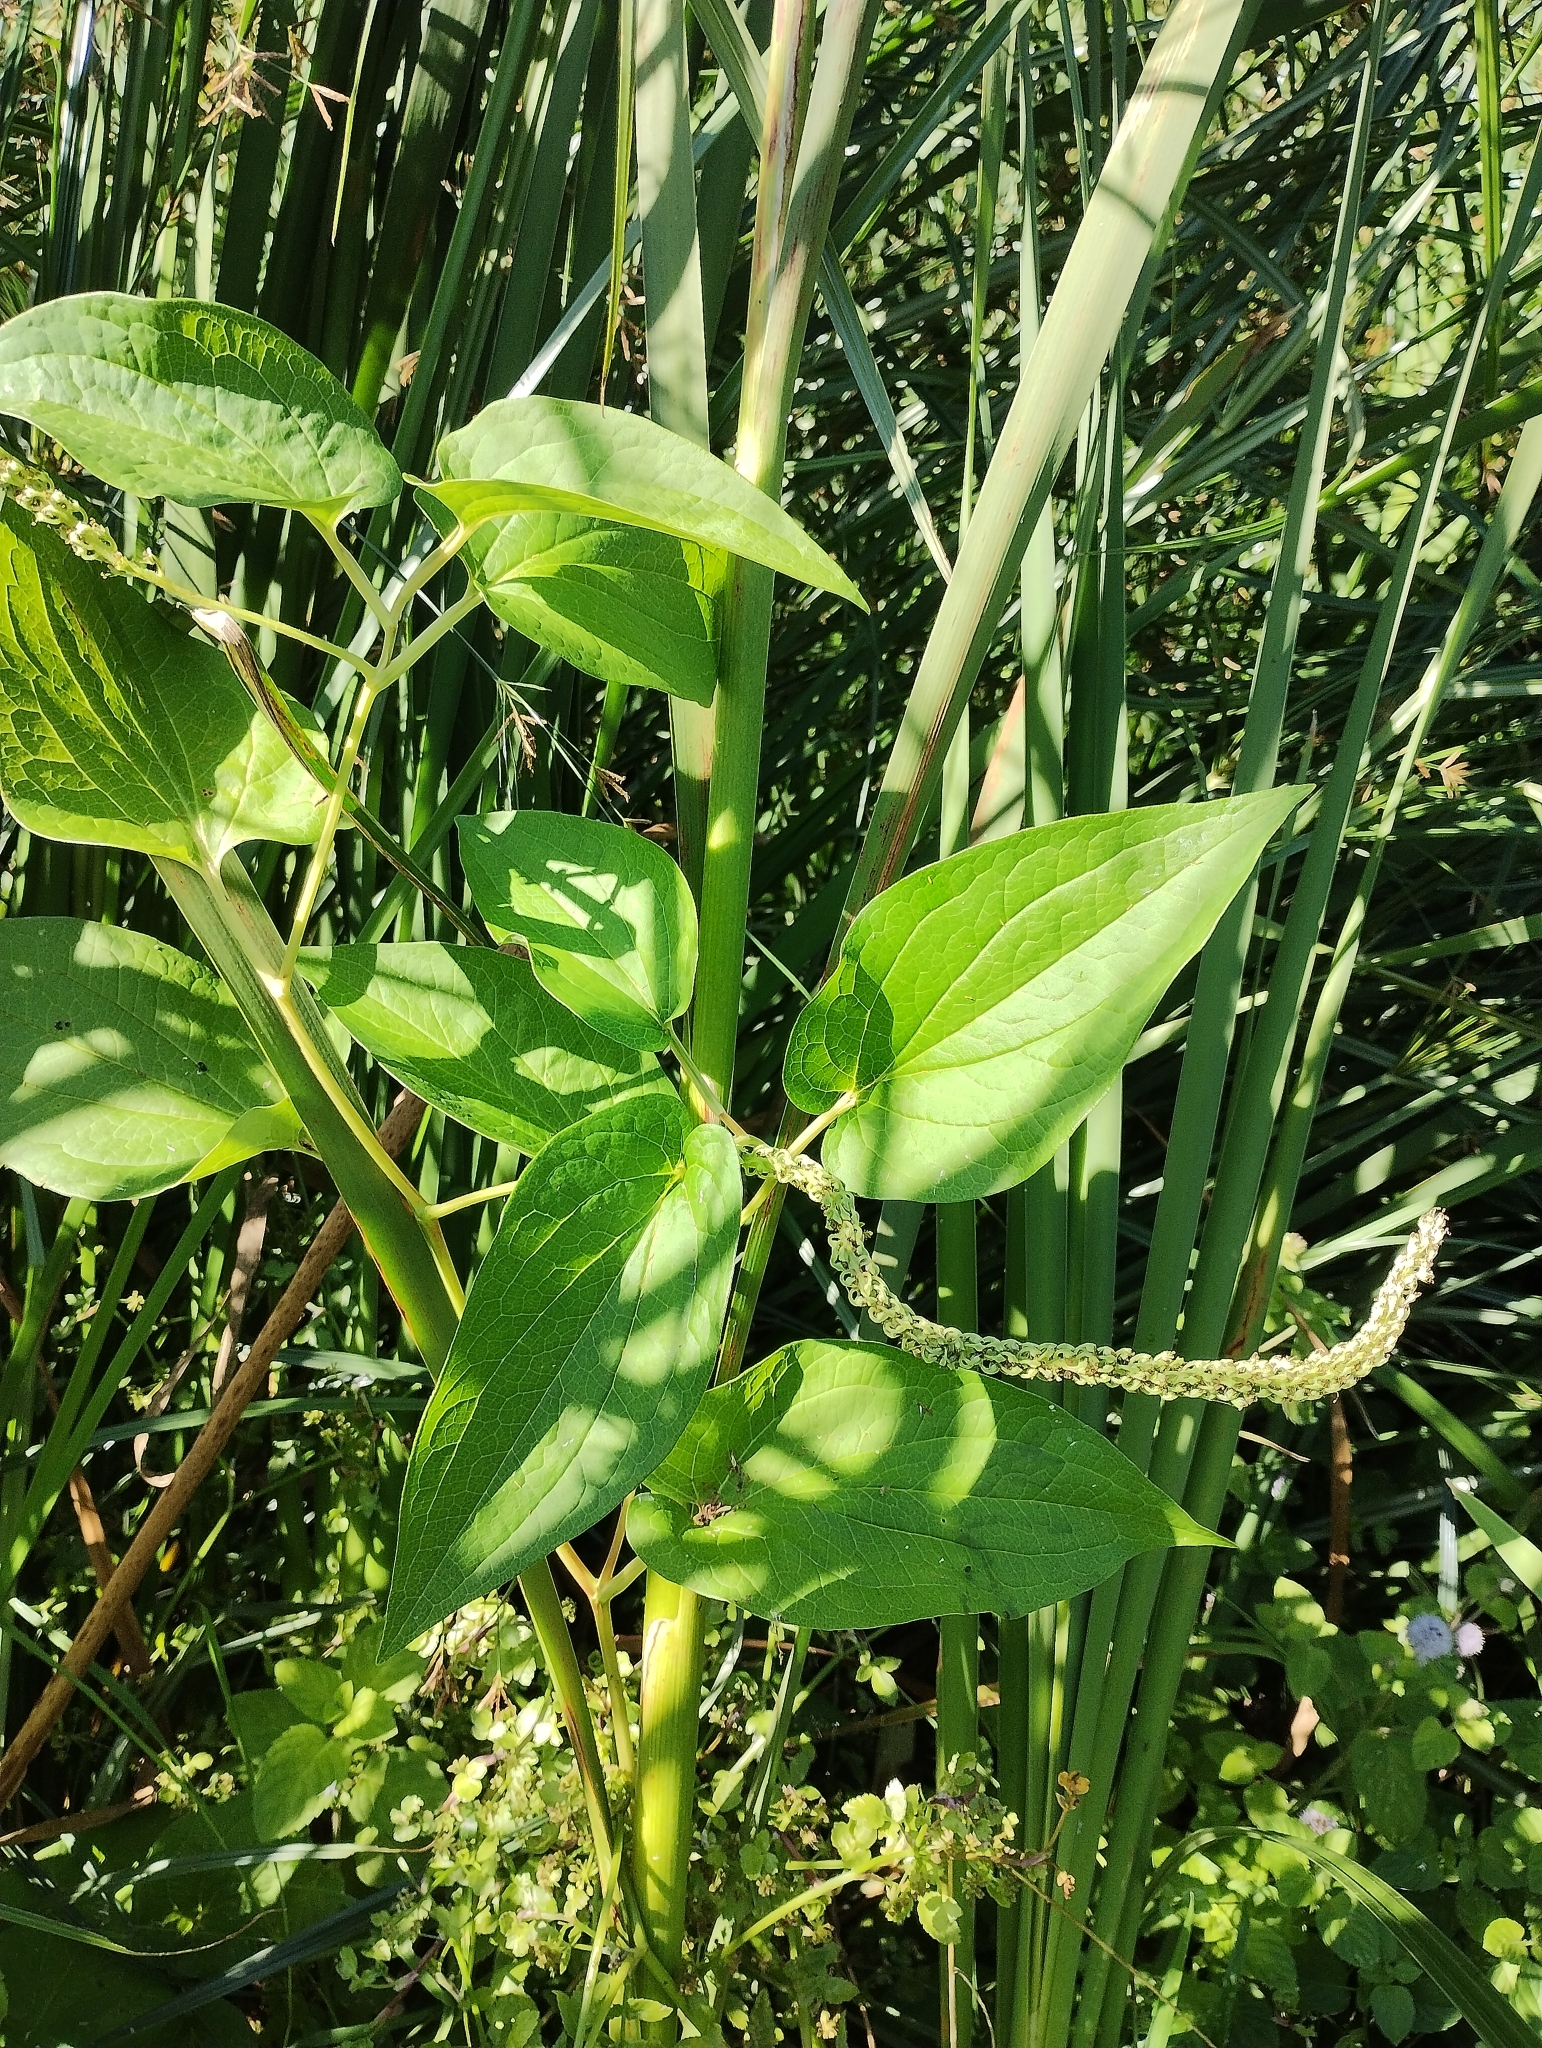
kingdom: Plantae
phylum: Tracheophyta
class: Magnoliopsida
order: Piperales
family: Saururaceae
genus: Saururus
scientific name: Saururus cernuus
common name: Lizard's-tail
